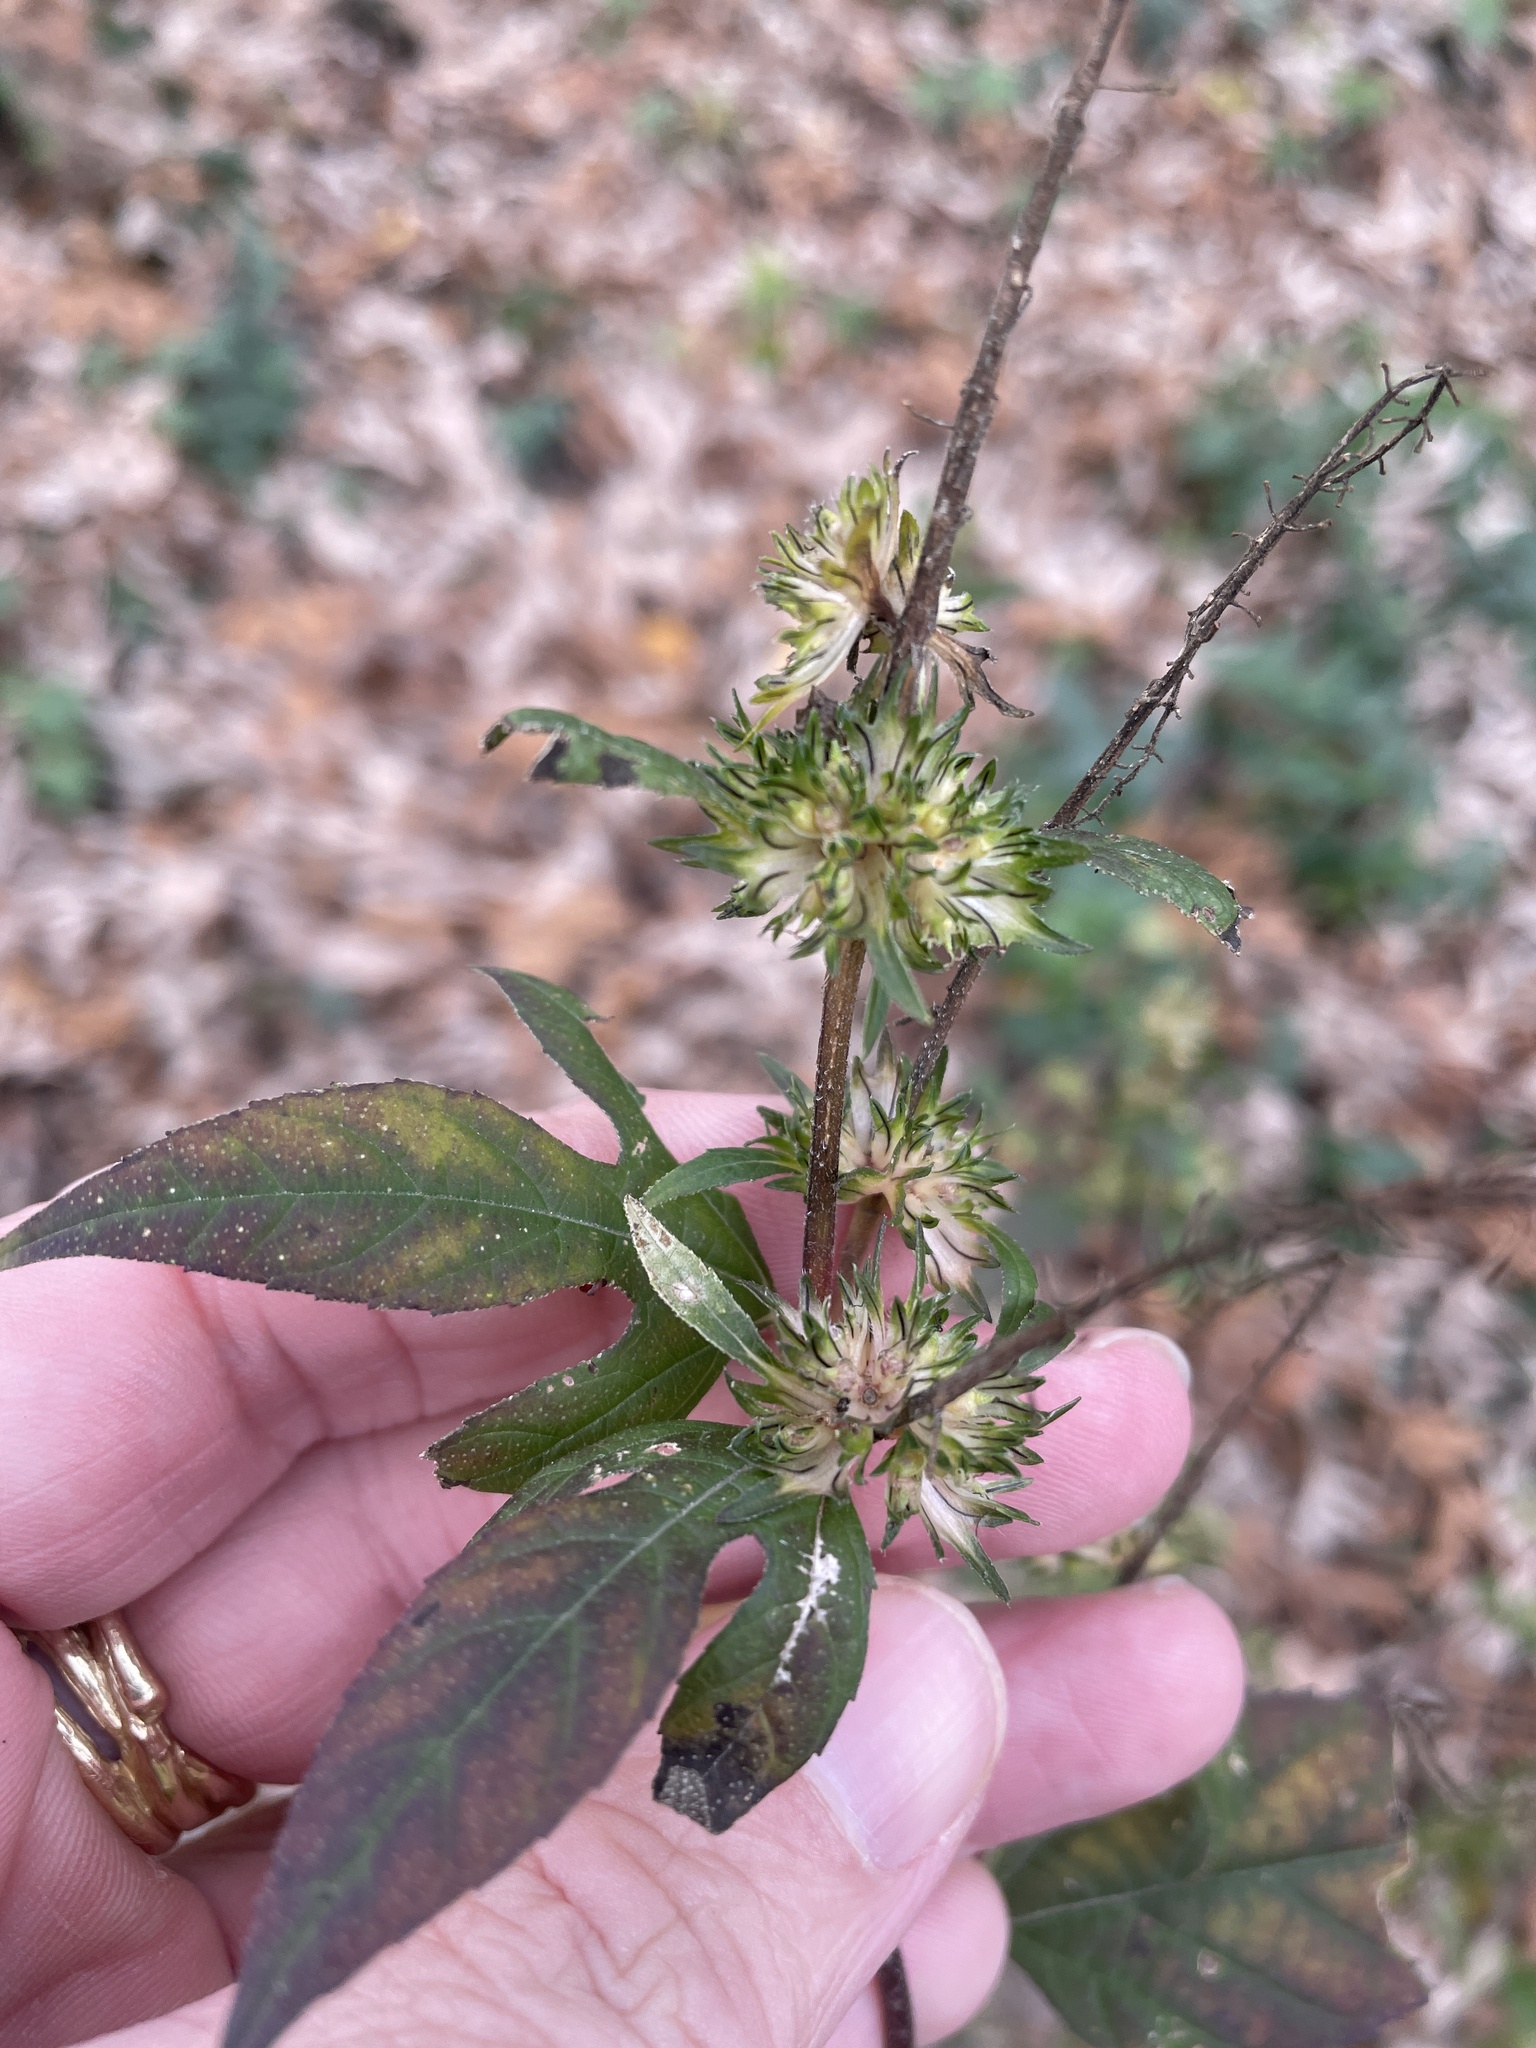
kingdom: Plantae
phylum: Tracheophyta
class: Magnoliopsida
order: Asterales
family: Asteraceae
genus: Ambrosia
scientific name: Ambrosia trifida
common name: Giant ragweed
